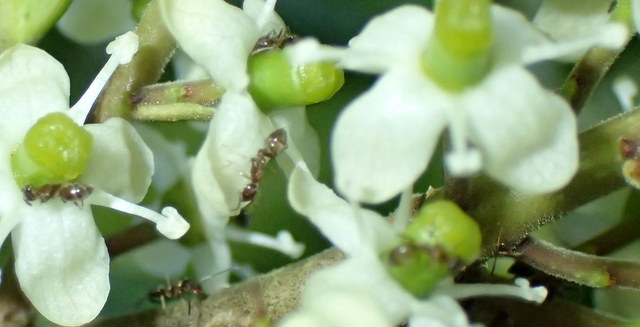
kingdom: Animalia
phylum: Arthropoda
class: Insecta
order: Hymenoptera
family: Formicidae
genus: Linepithema
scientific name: Linepithema humile
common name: Argentine ant
